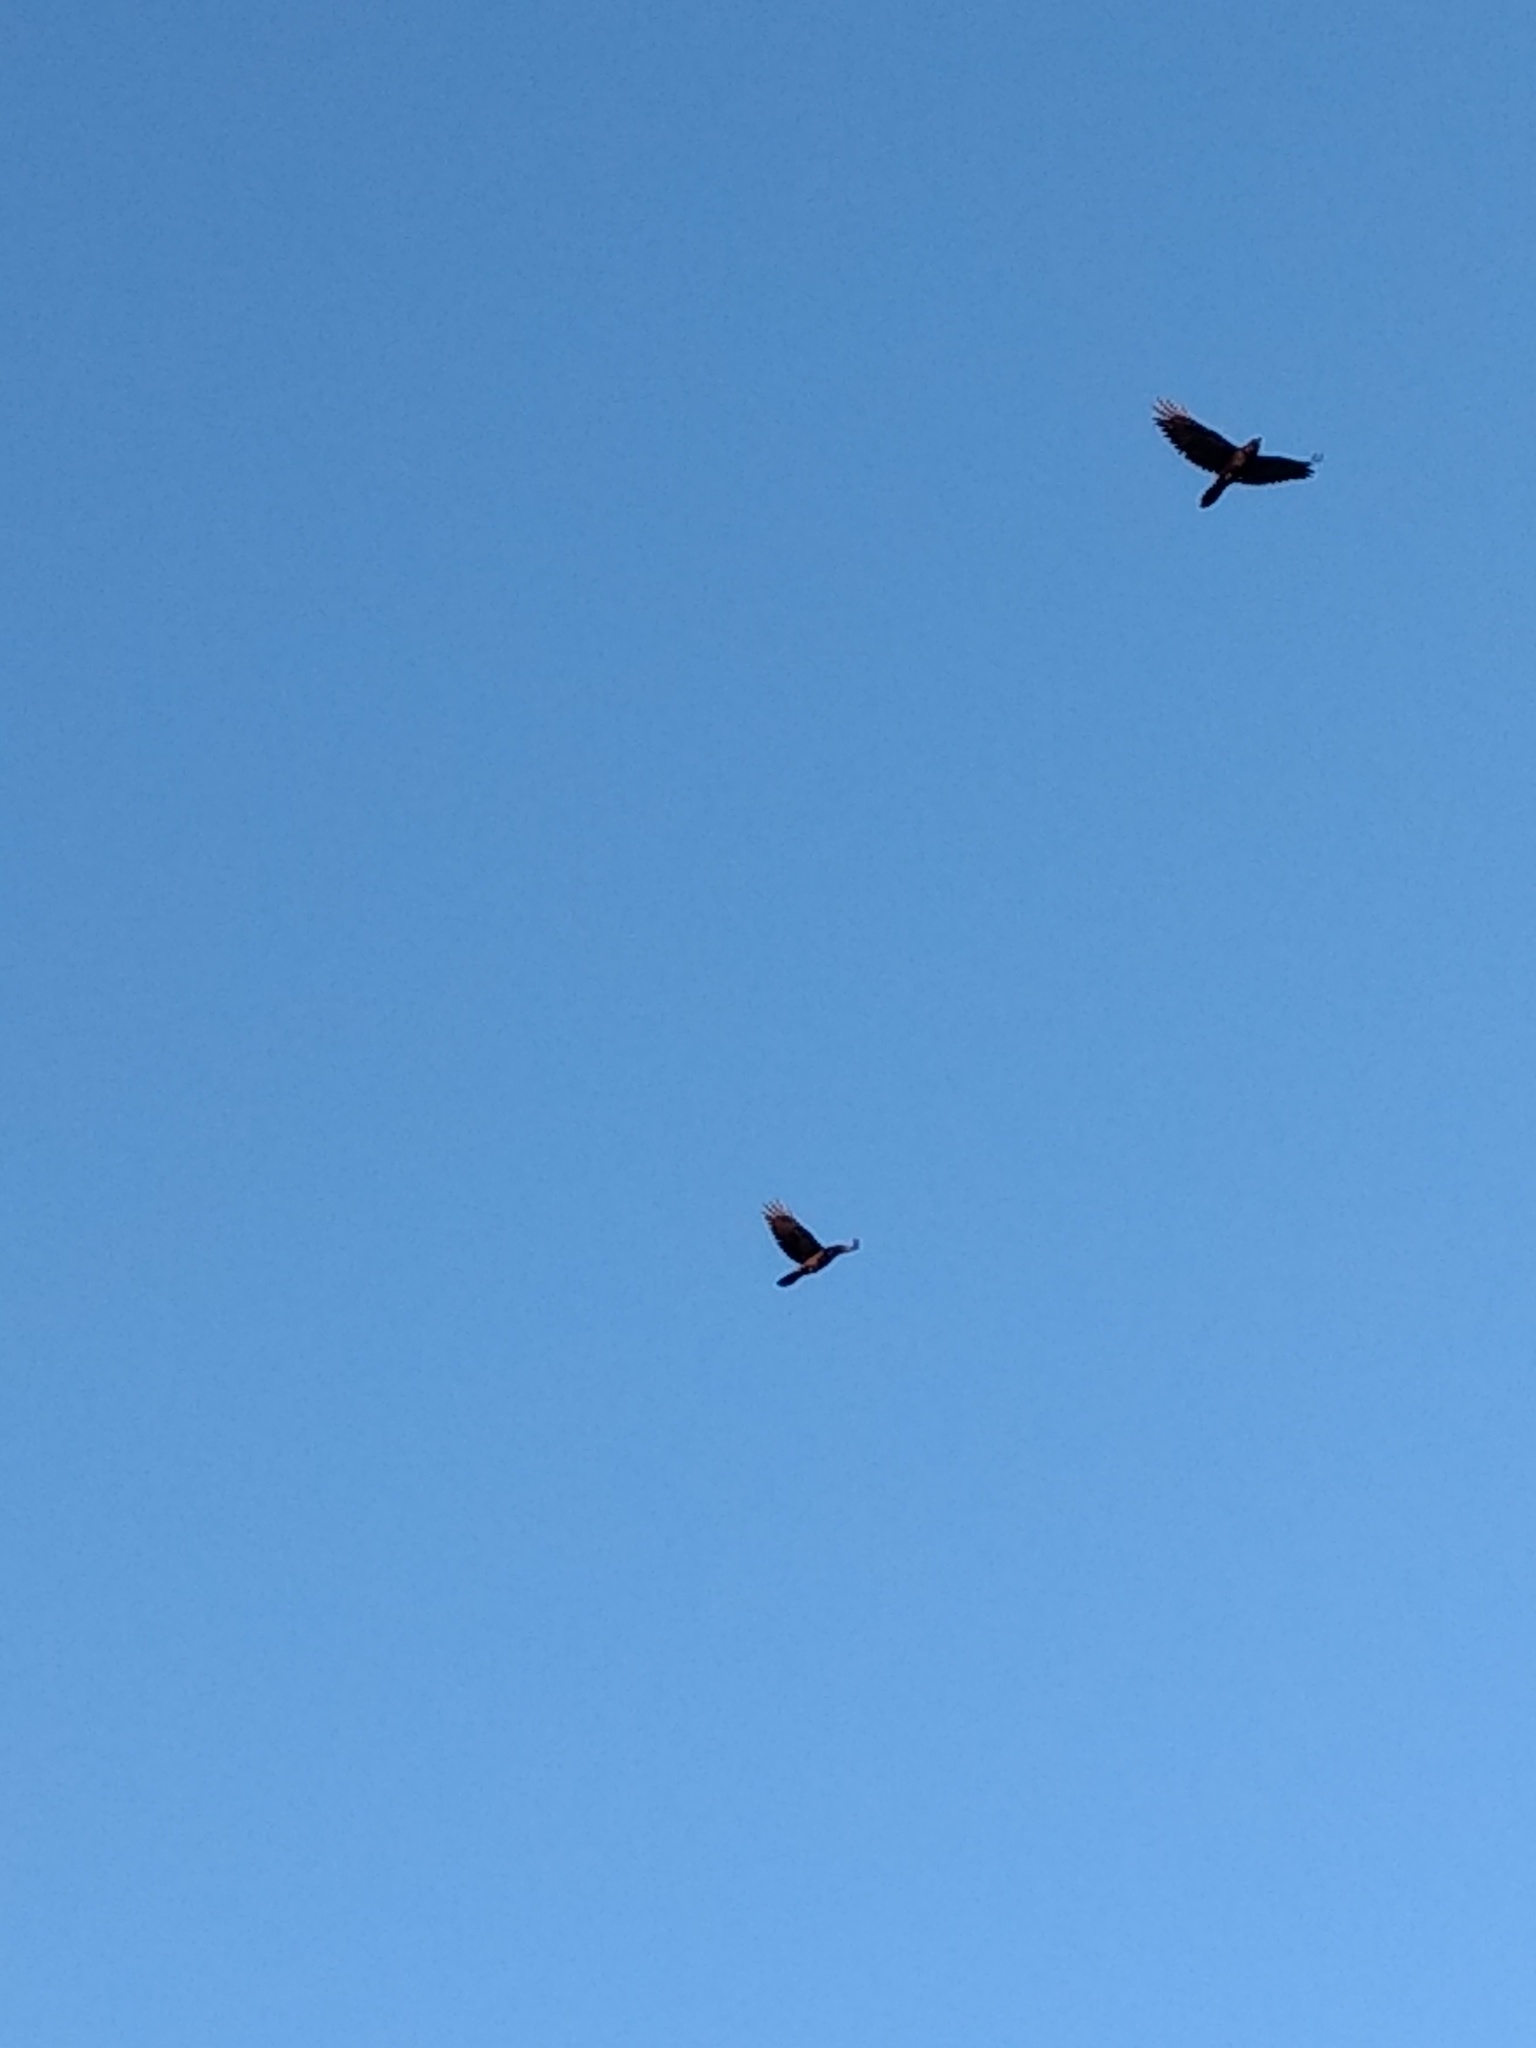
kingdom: Animalia
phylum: Chordata
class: Aves
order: Passeriformes
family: Corvidae
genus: Corvus
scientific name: Corvus corax
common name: Common raven
